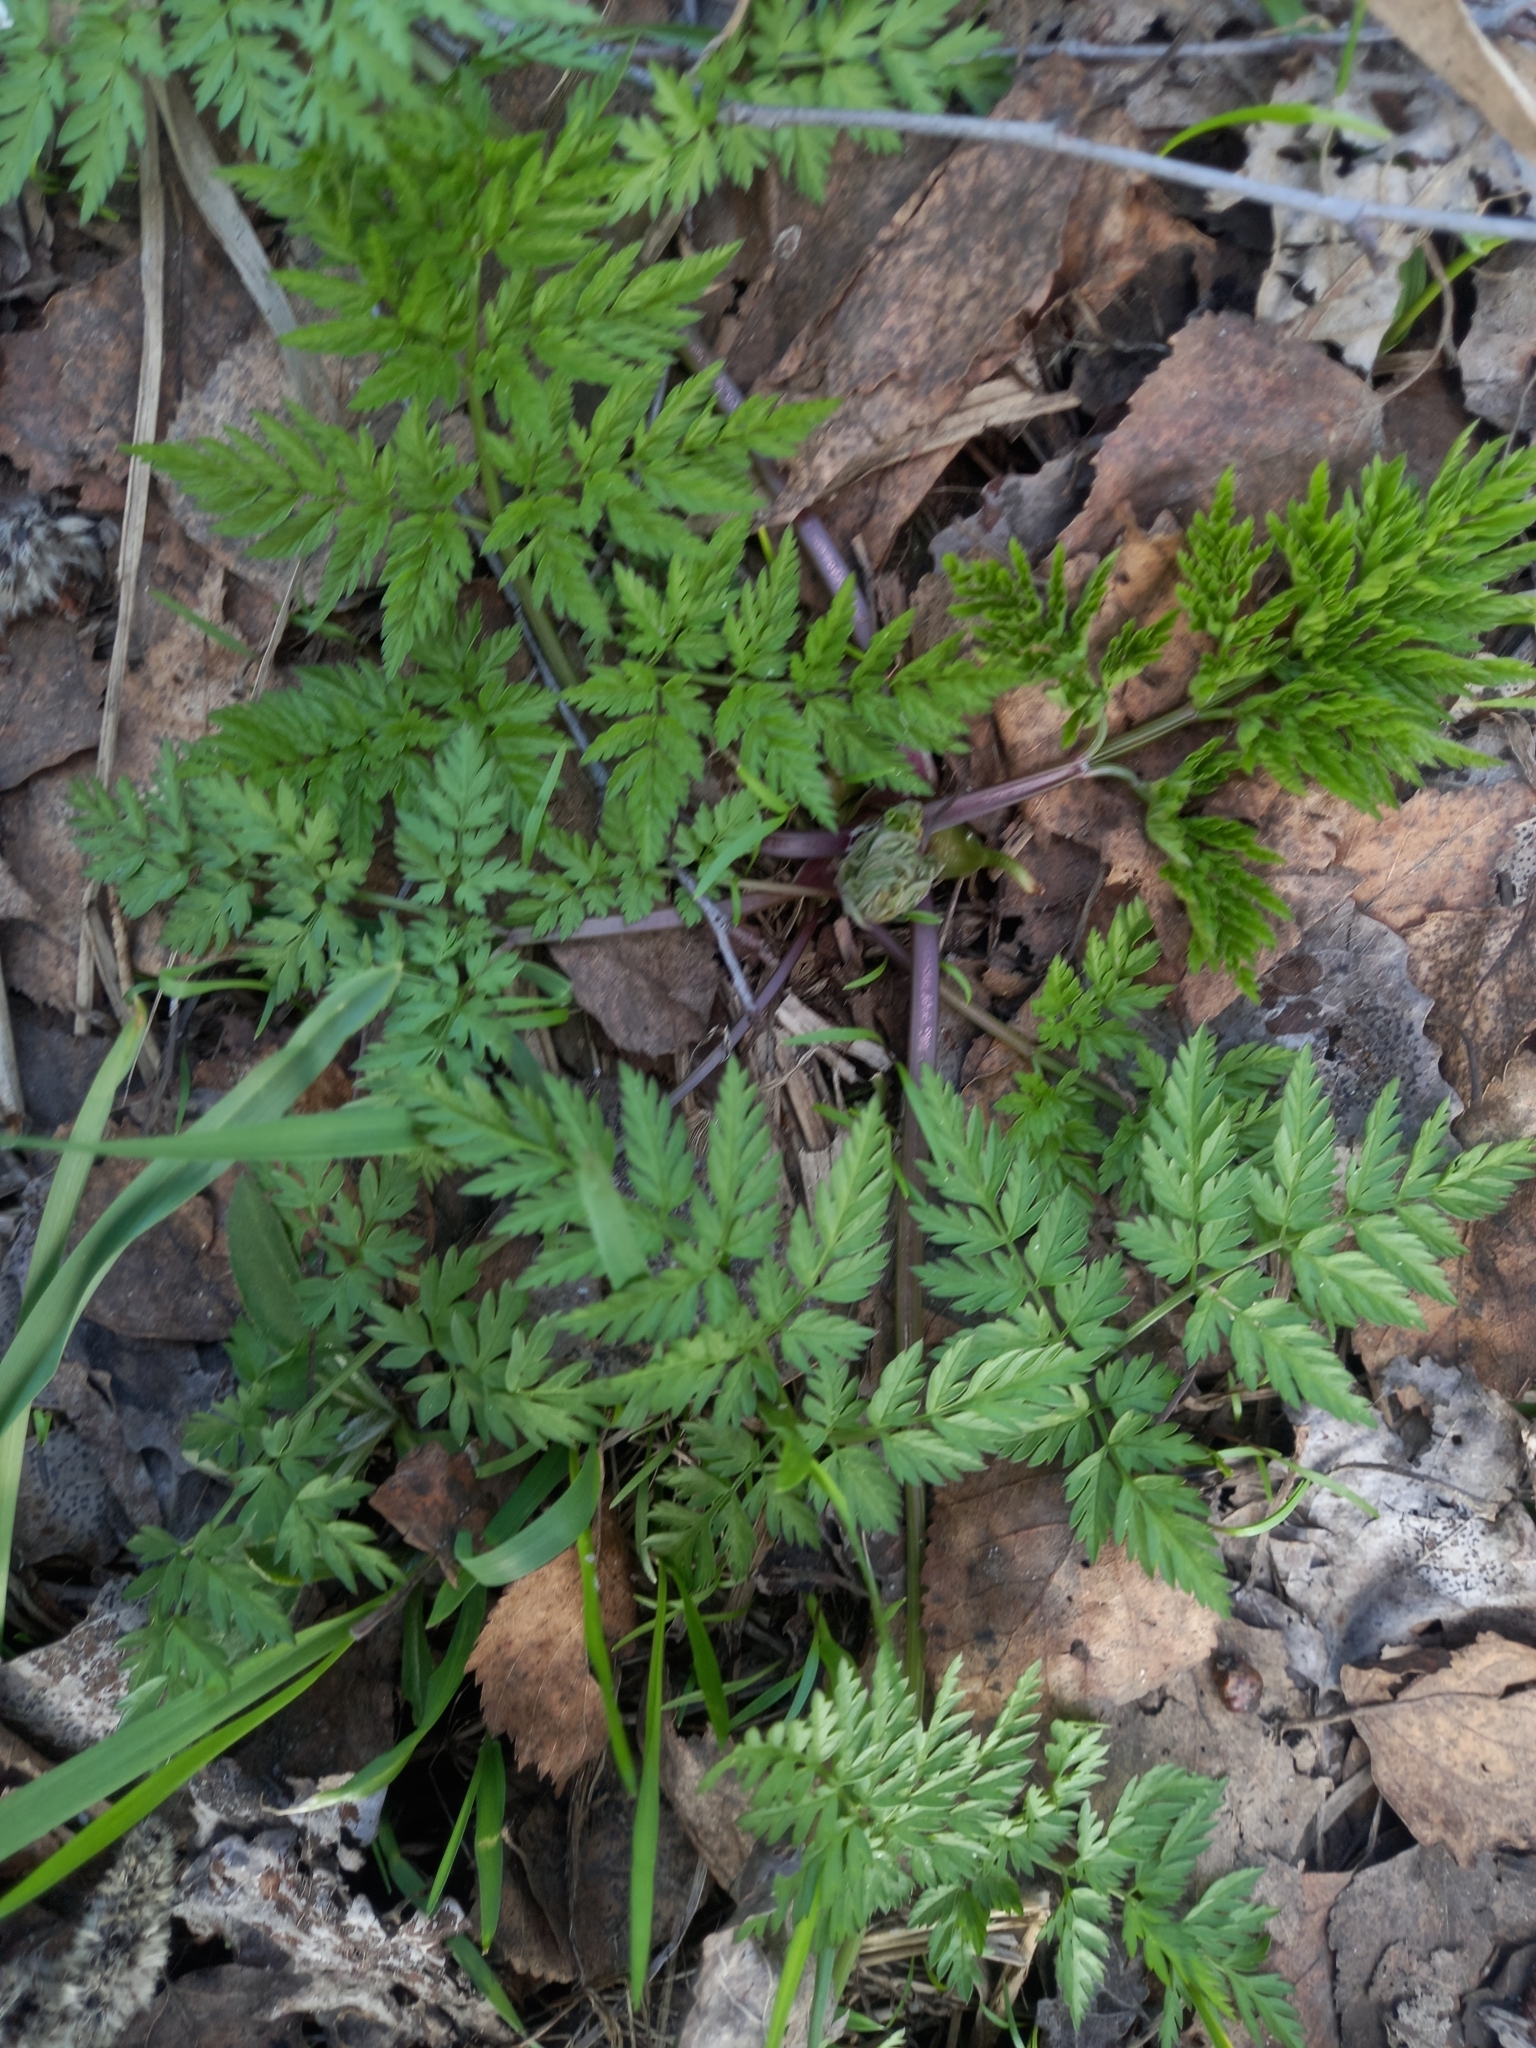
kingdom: Plantae
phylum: Tracheophyta
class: Magnoliopsida
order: Apiales
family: Apiaceae
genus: Anthriscus
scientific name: Anthriscus sylvestris
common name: Cow parsley
